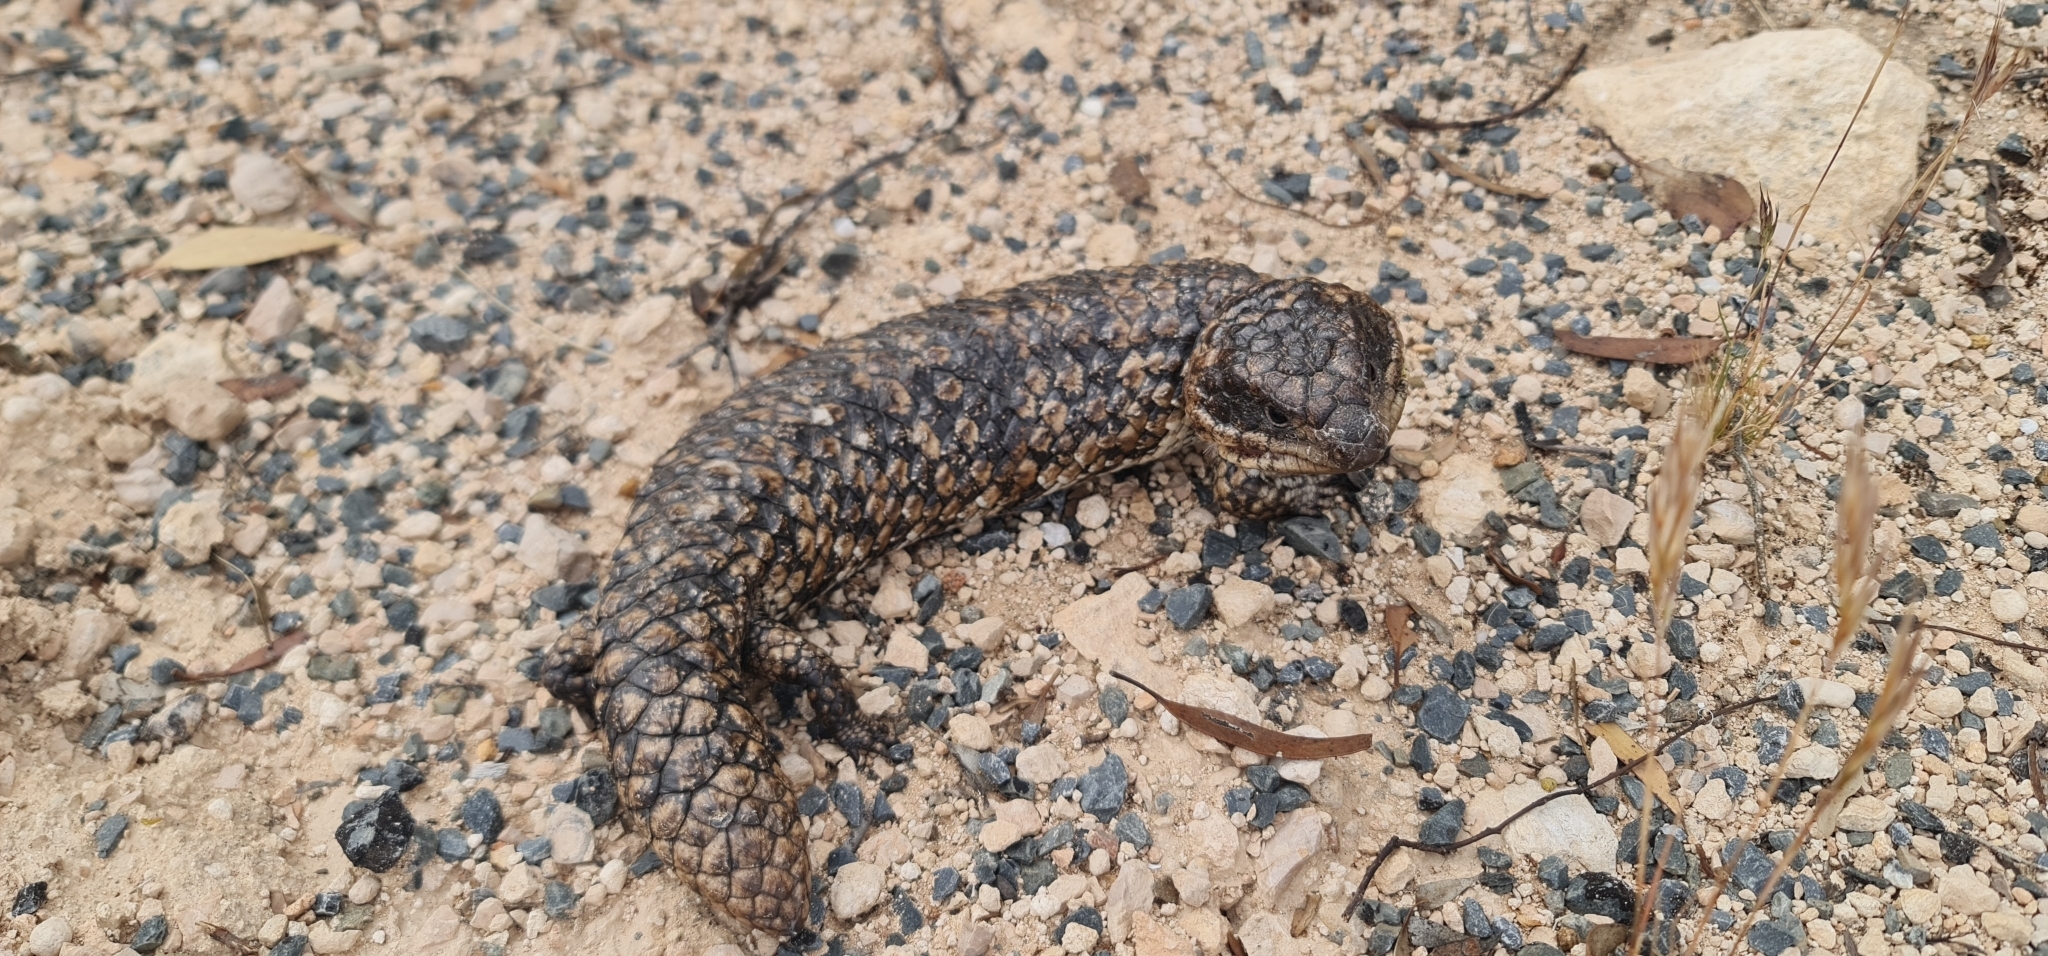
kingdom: Animalia
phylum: Chordata
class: Squamata
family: Scincidae
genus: Tiliqua
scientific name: Tiliqua rugosa
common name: Pinecone lizard
